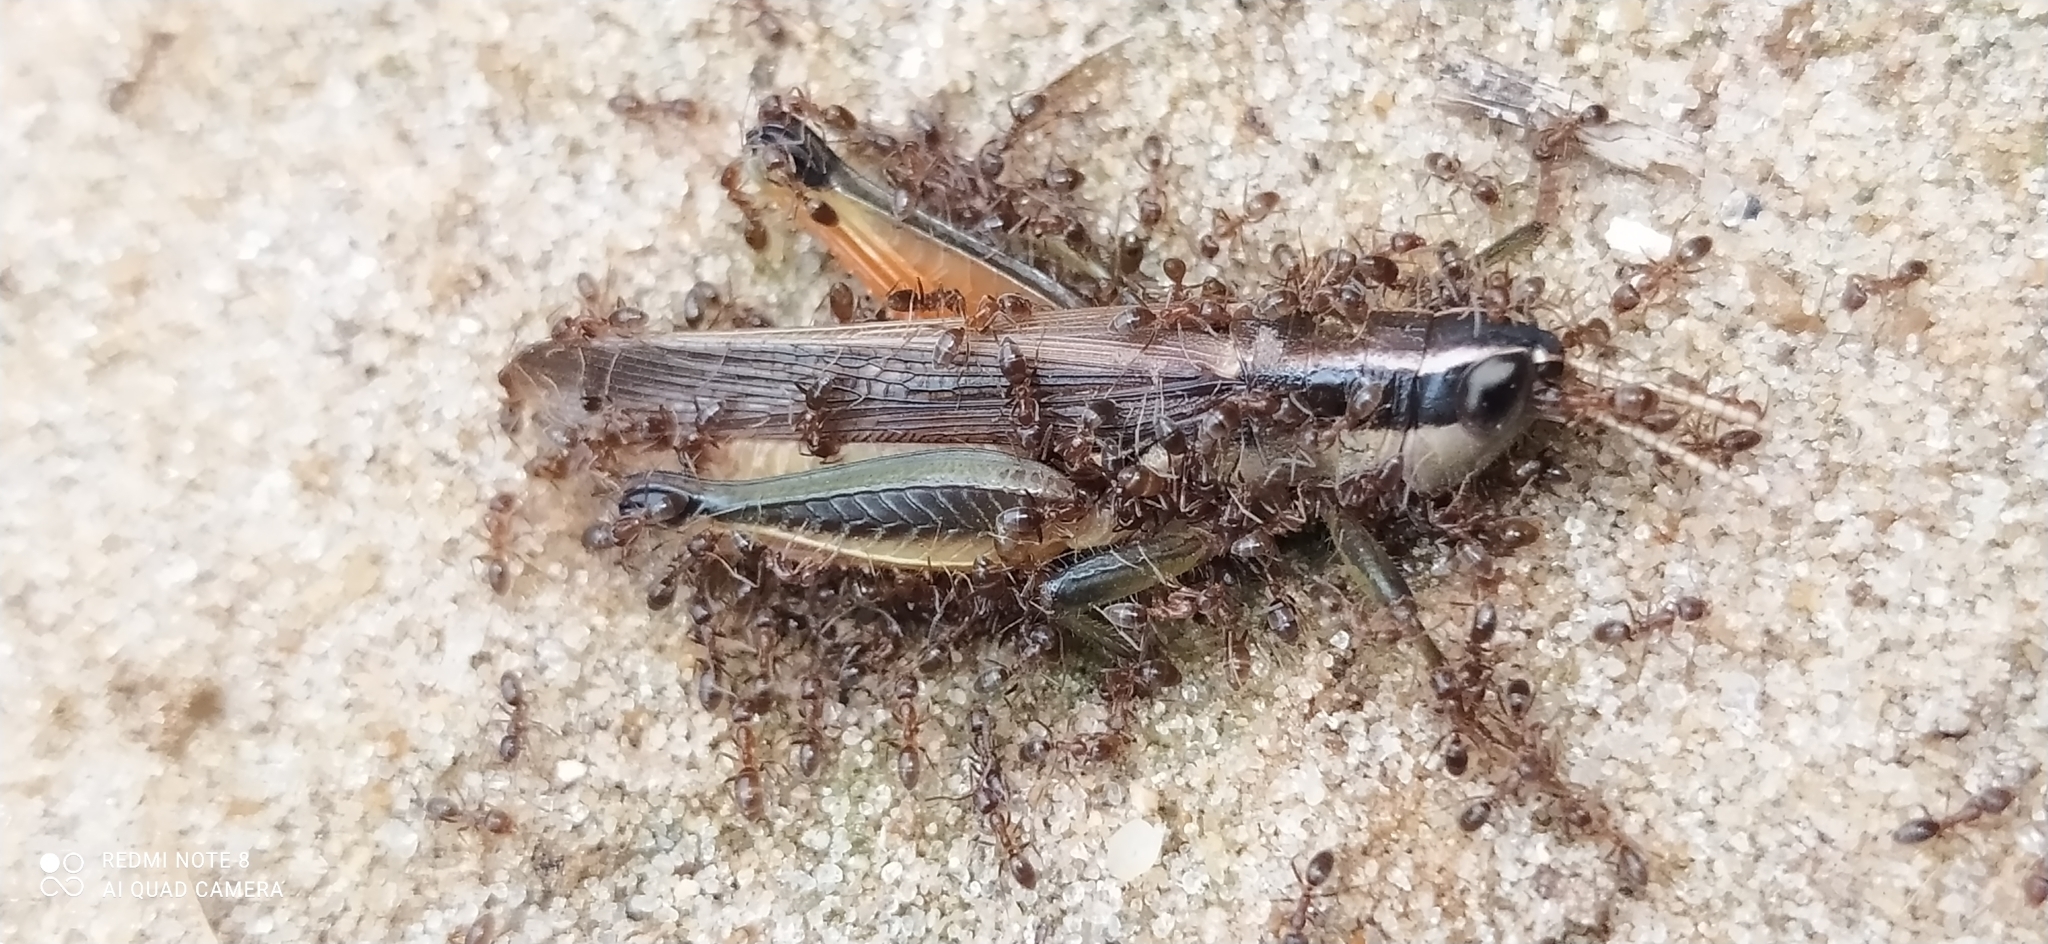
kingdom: Animalia
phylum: Arthropoda
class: Insecta
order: Orthoptera
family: Acrididae
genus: Scotussa
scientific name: Scotussa cliens
